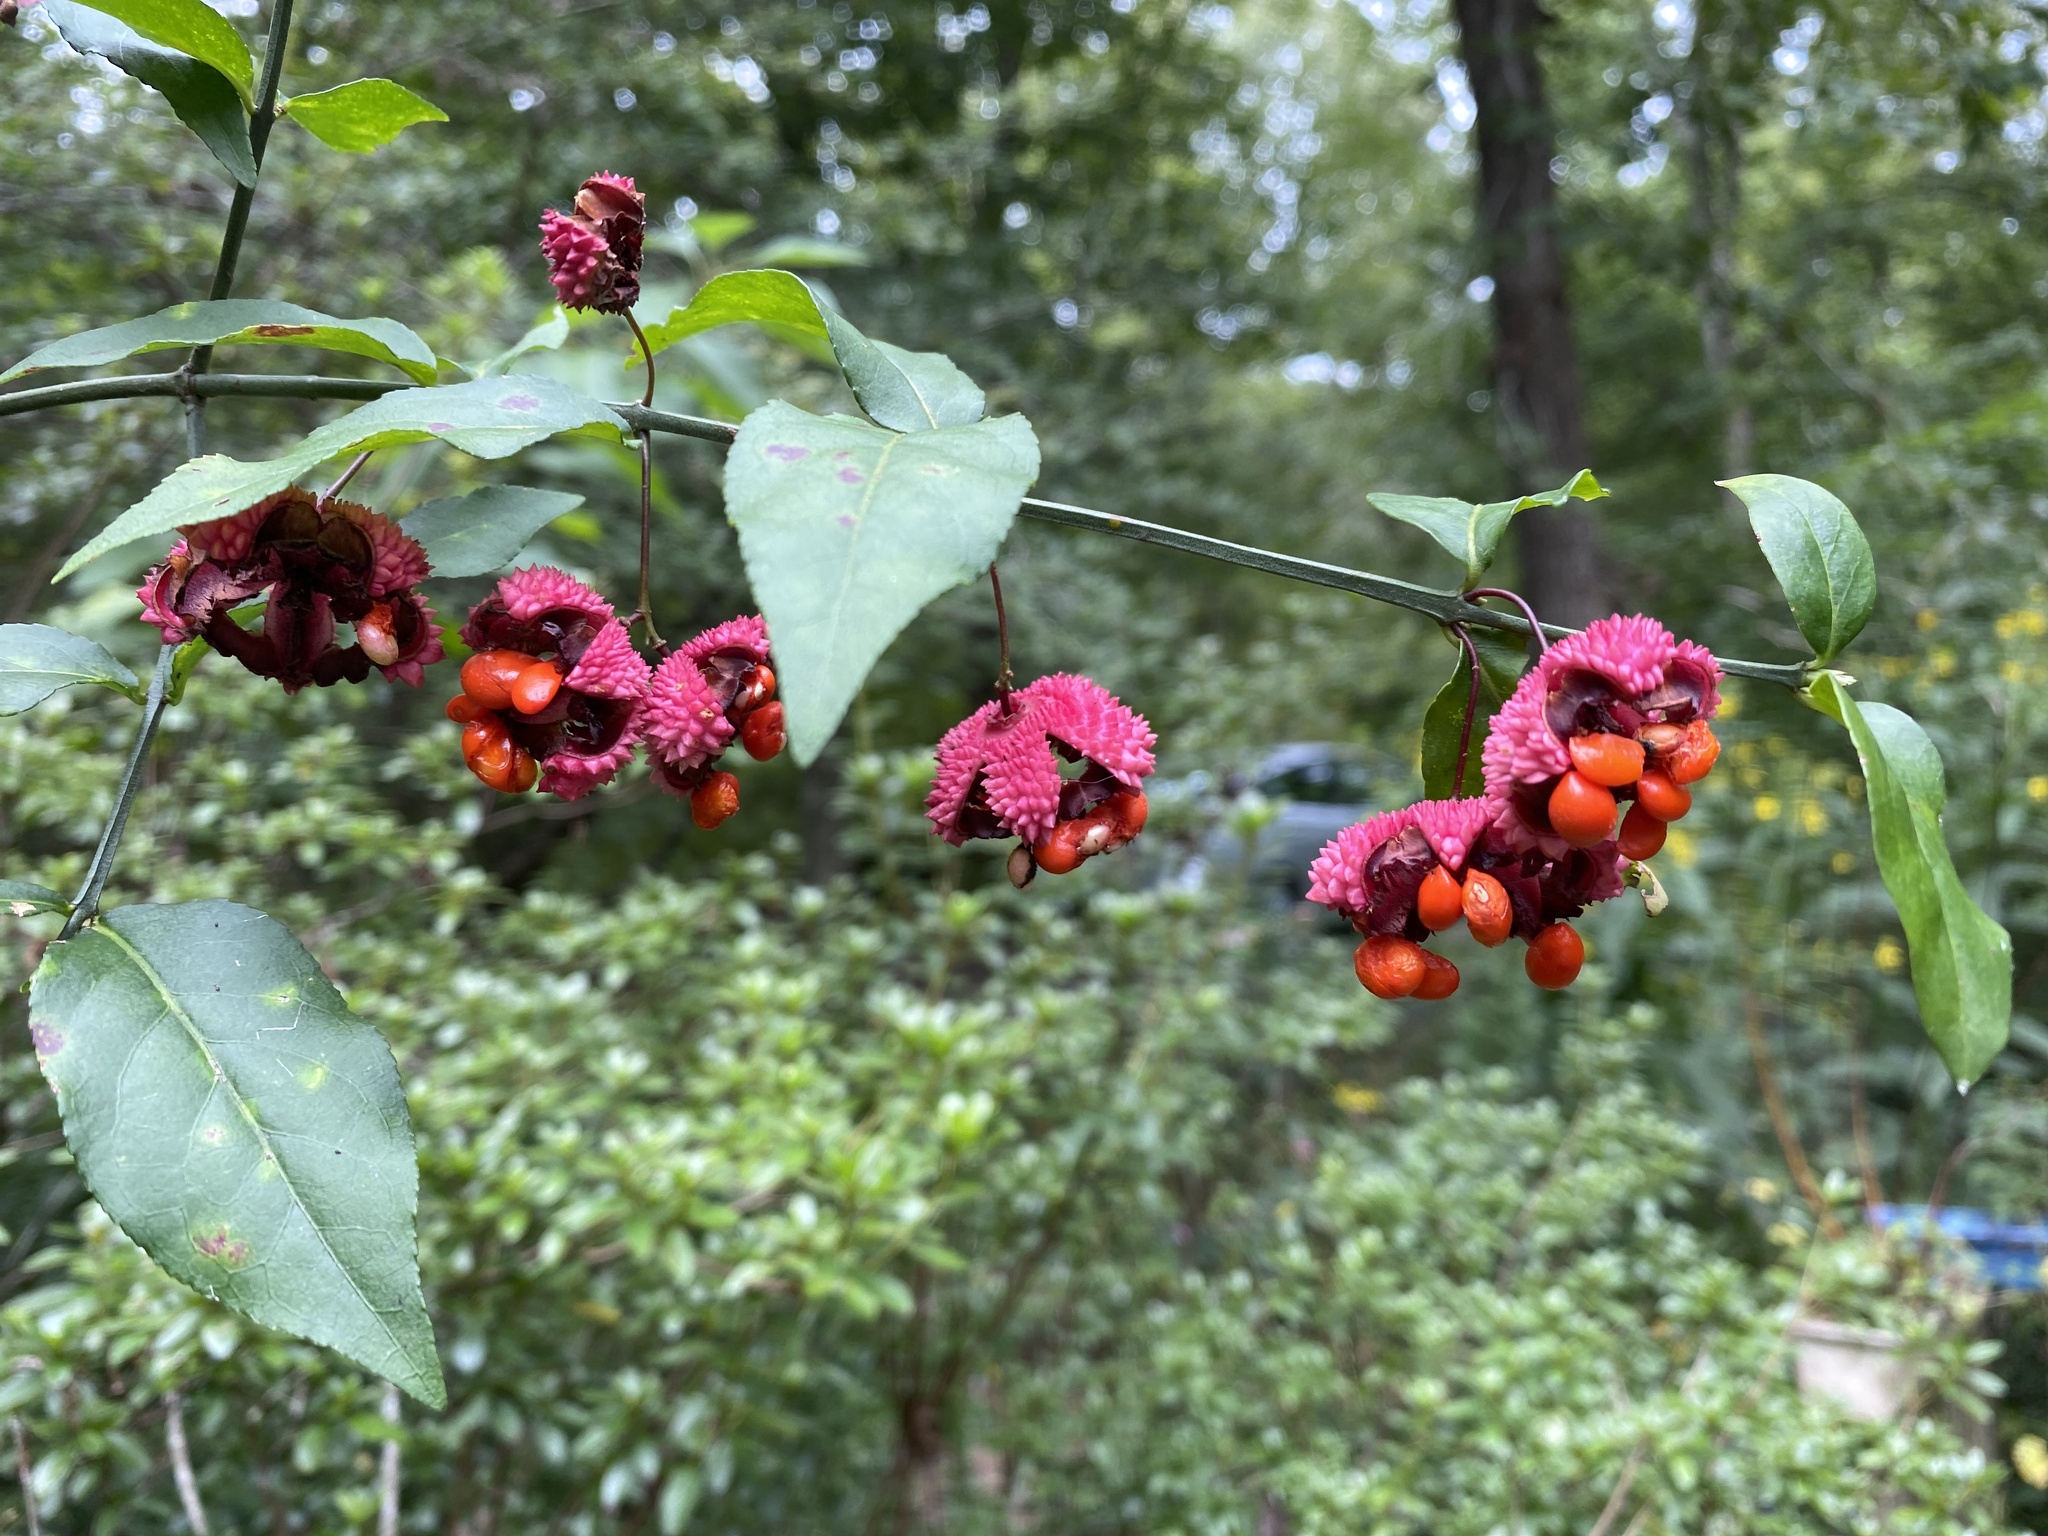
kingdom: Plantae
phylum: Tracheophyta
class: Magnoliopsida
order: Celastrales
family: Celastraceae
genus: Euonymus
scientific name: Euonymus americanus
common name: Bursting-heart
